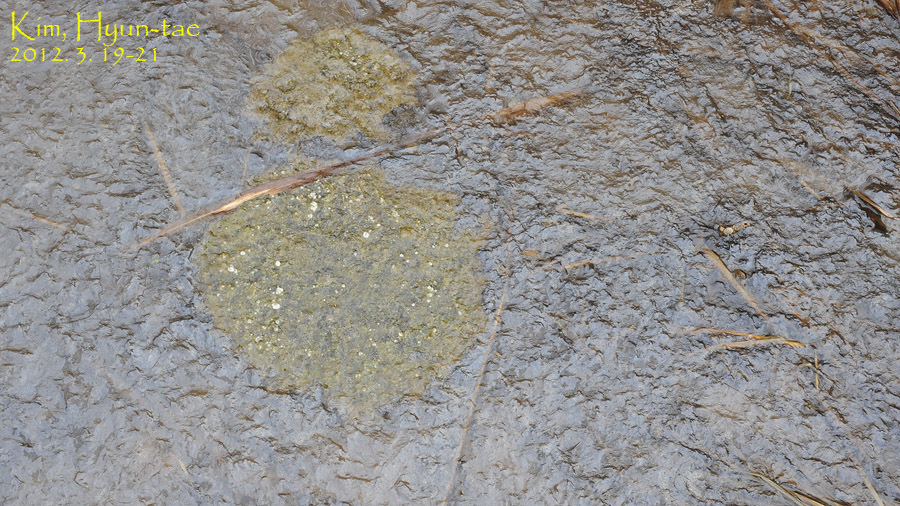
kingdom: Animalia
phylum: Chordata
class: Amphibia
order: Anura
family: Ranidae
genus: Rana
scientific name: Rana uenoi
